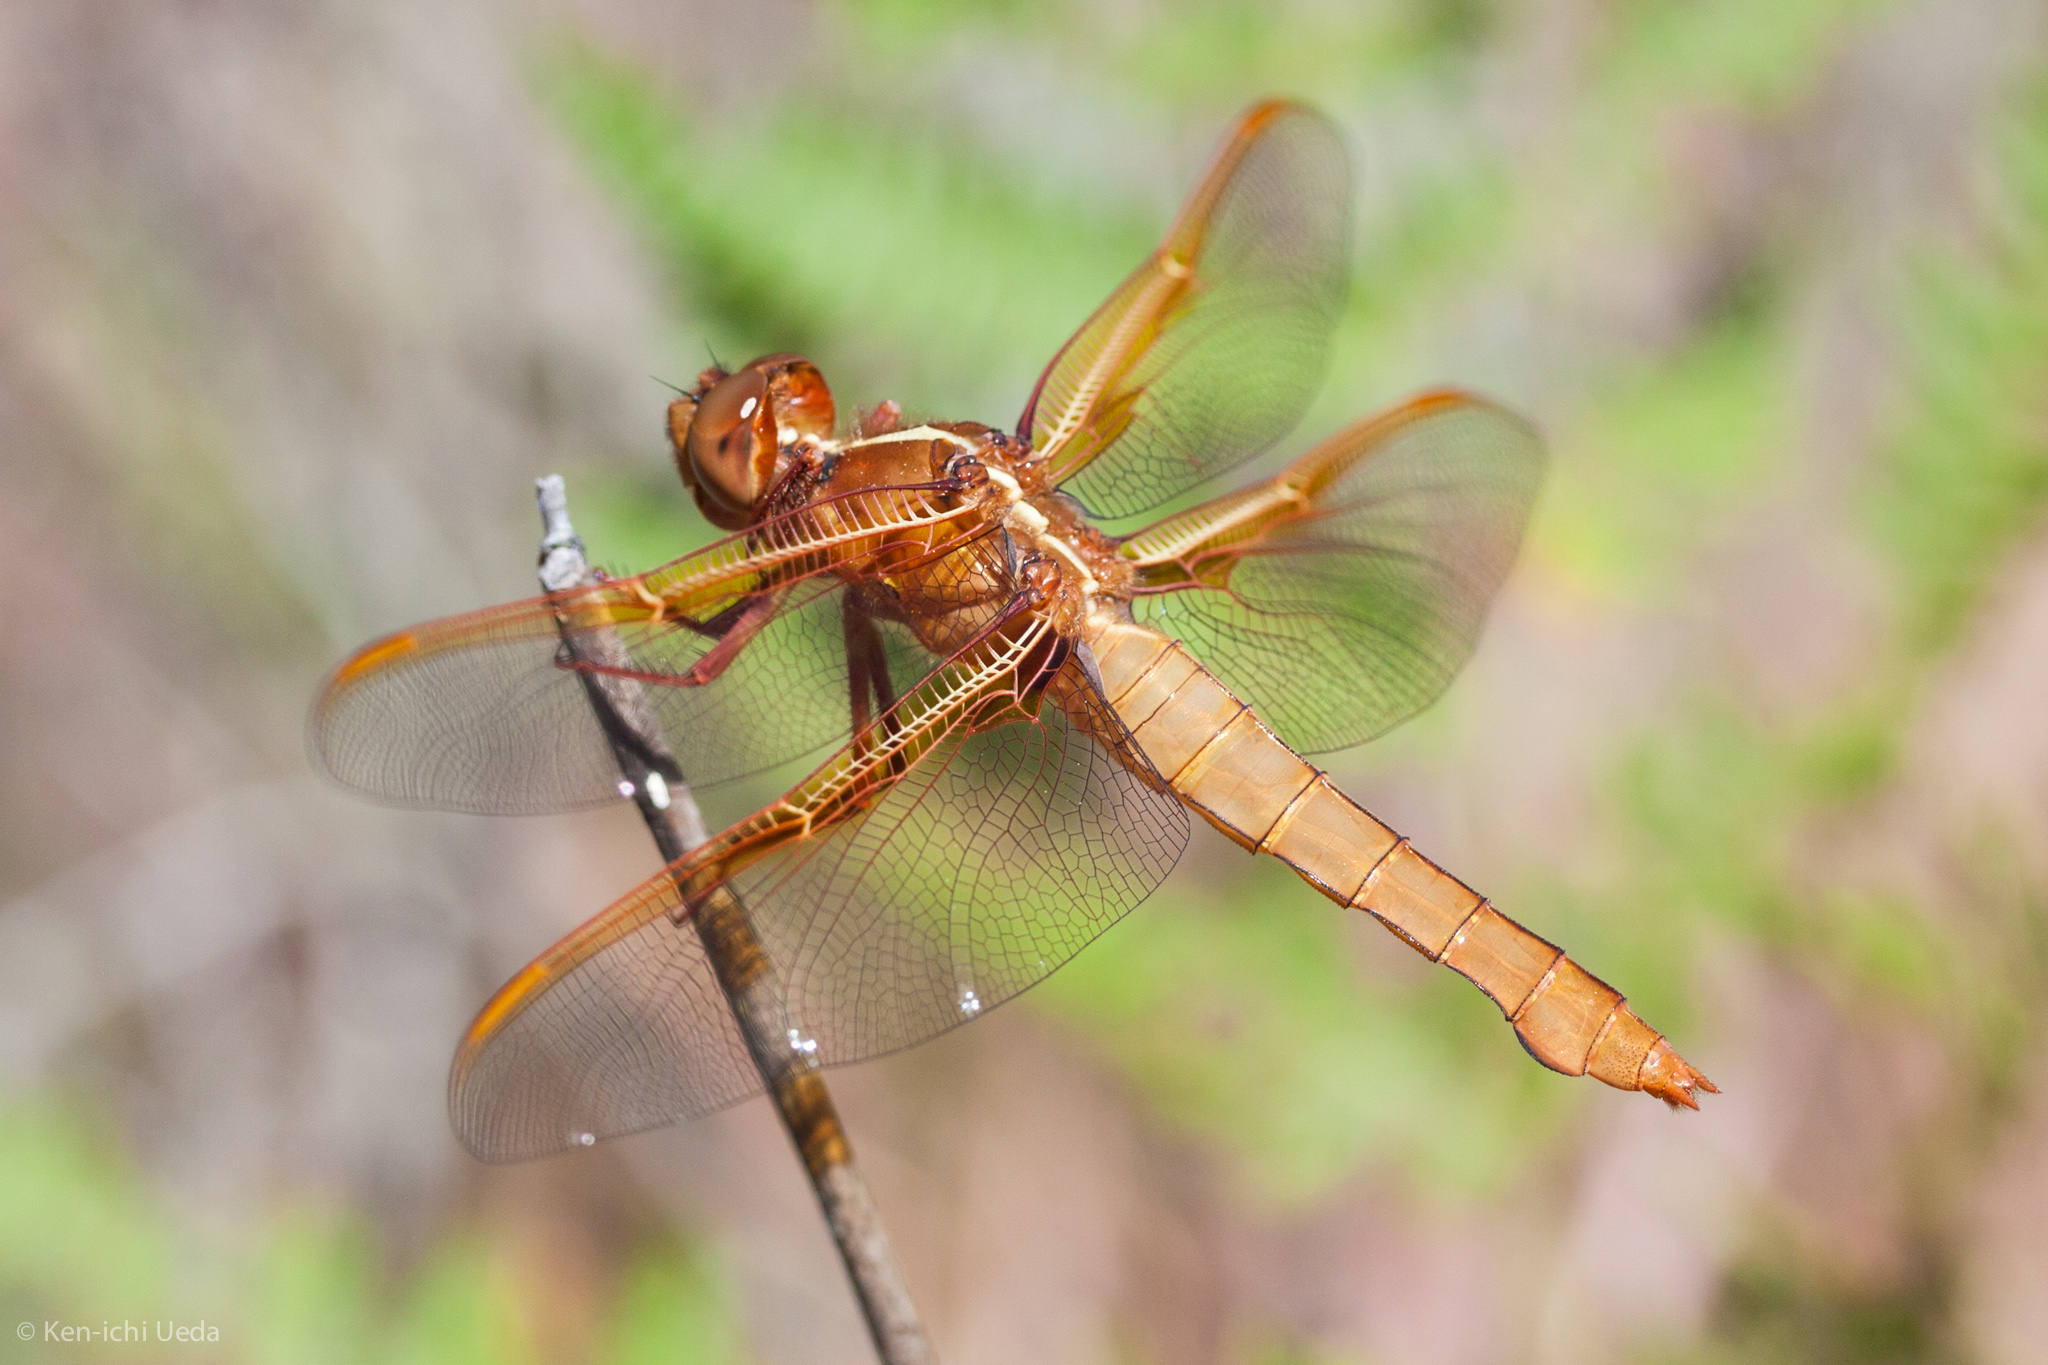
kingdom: Animalia
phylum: Arthropoda
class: Insecta
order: Odonata
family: Libellulidae
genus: Libellula
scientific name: Libellula saturata
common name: Flame skimmer
